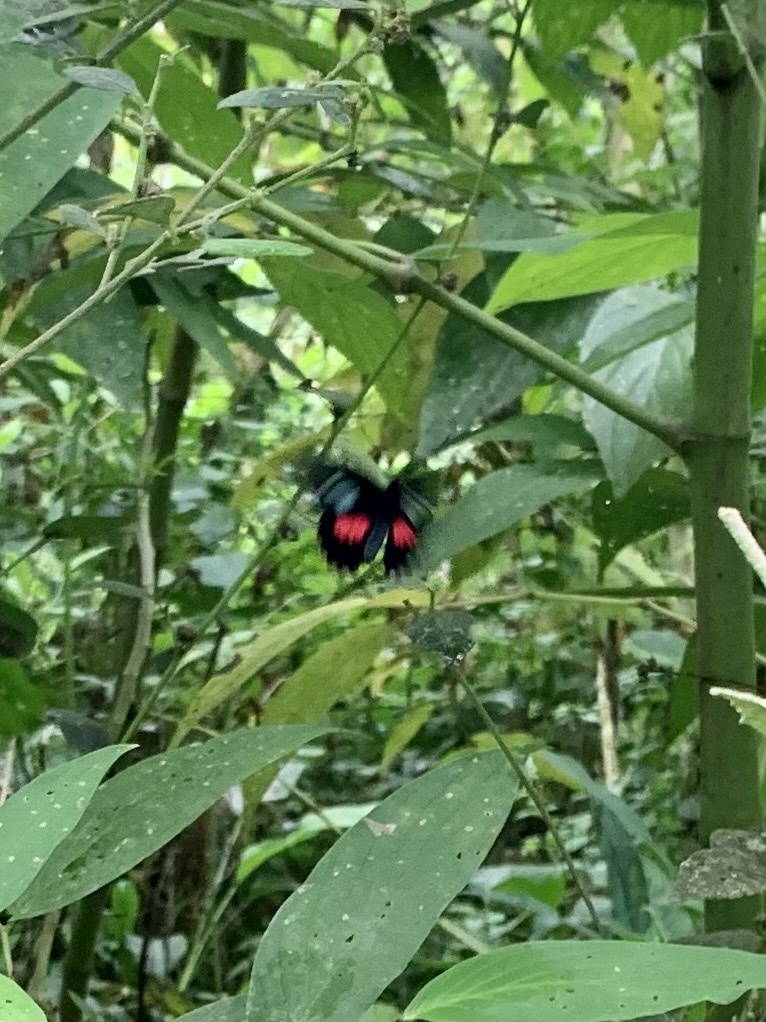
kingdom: Animalia
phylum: Arthropoda
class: Insecta
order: Lepidoptera
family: Pieridae
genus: Archonias
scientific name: Archonias brassolis
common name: Cattleheart white
